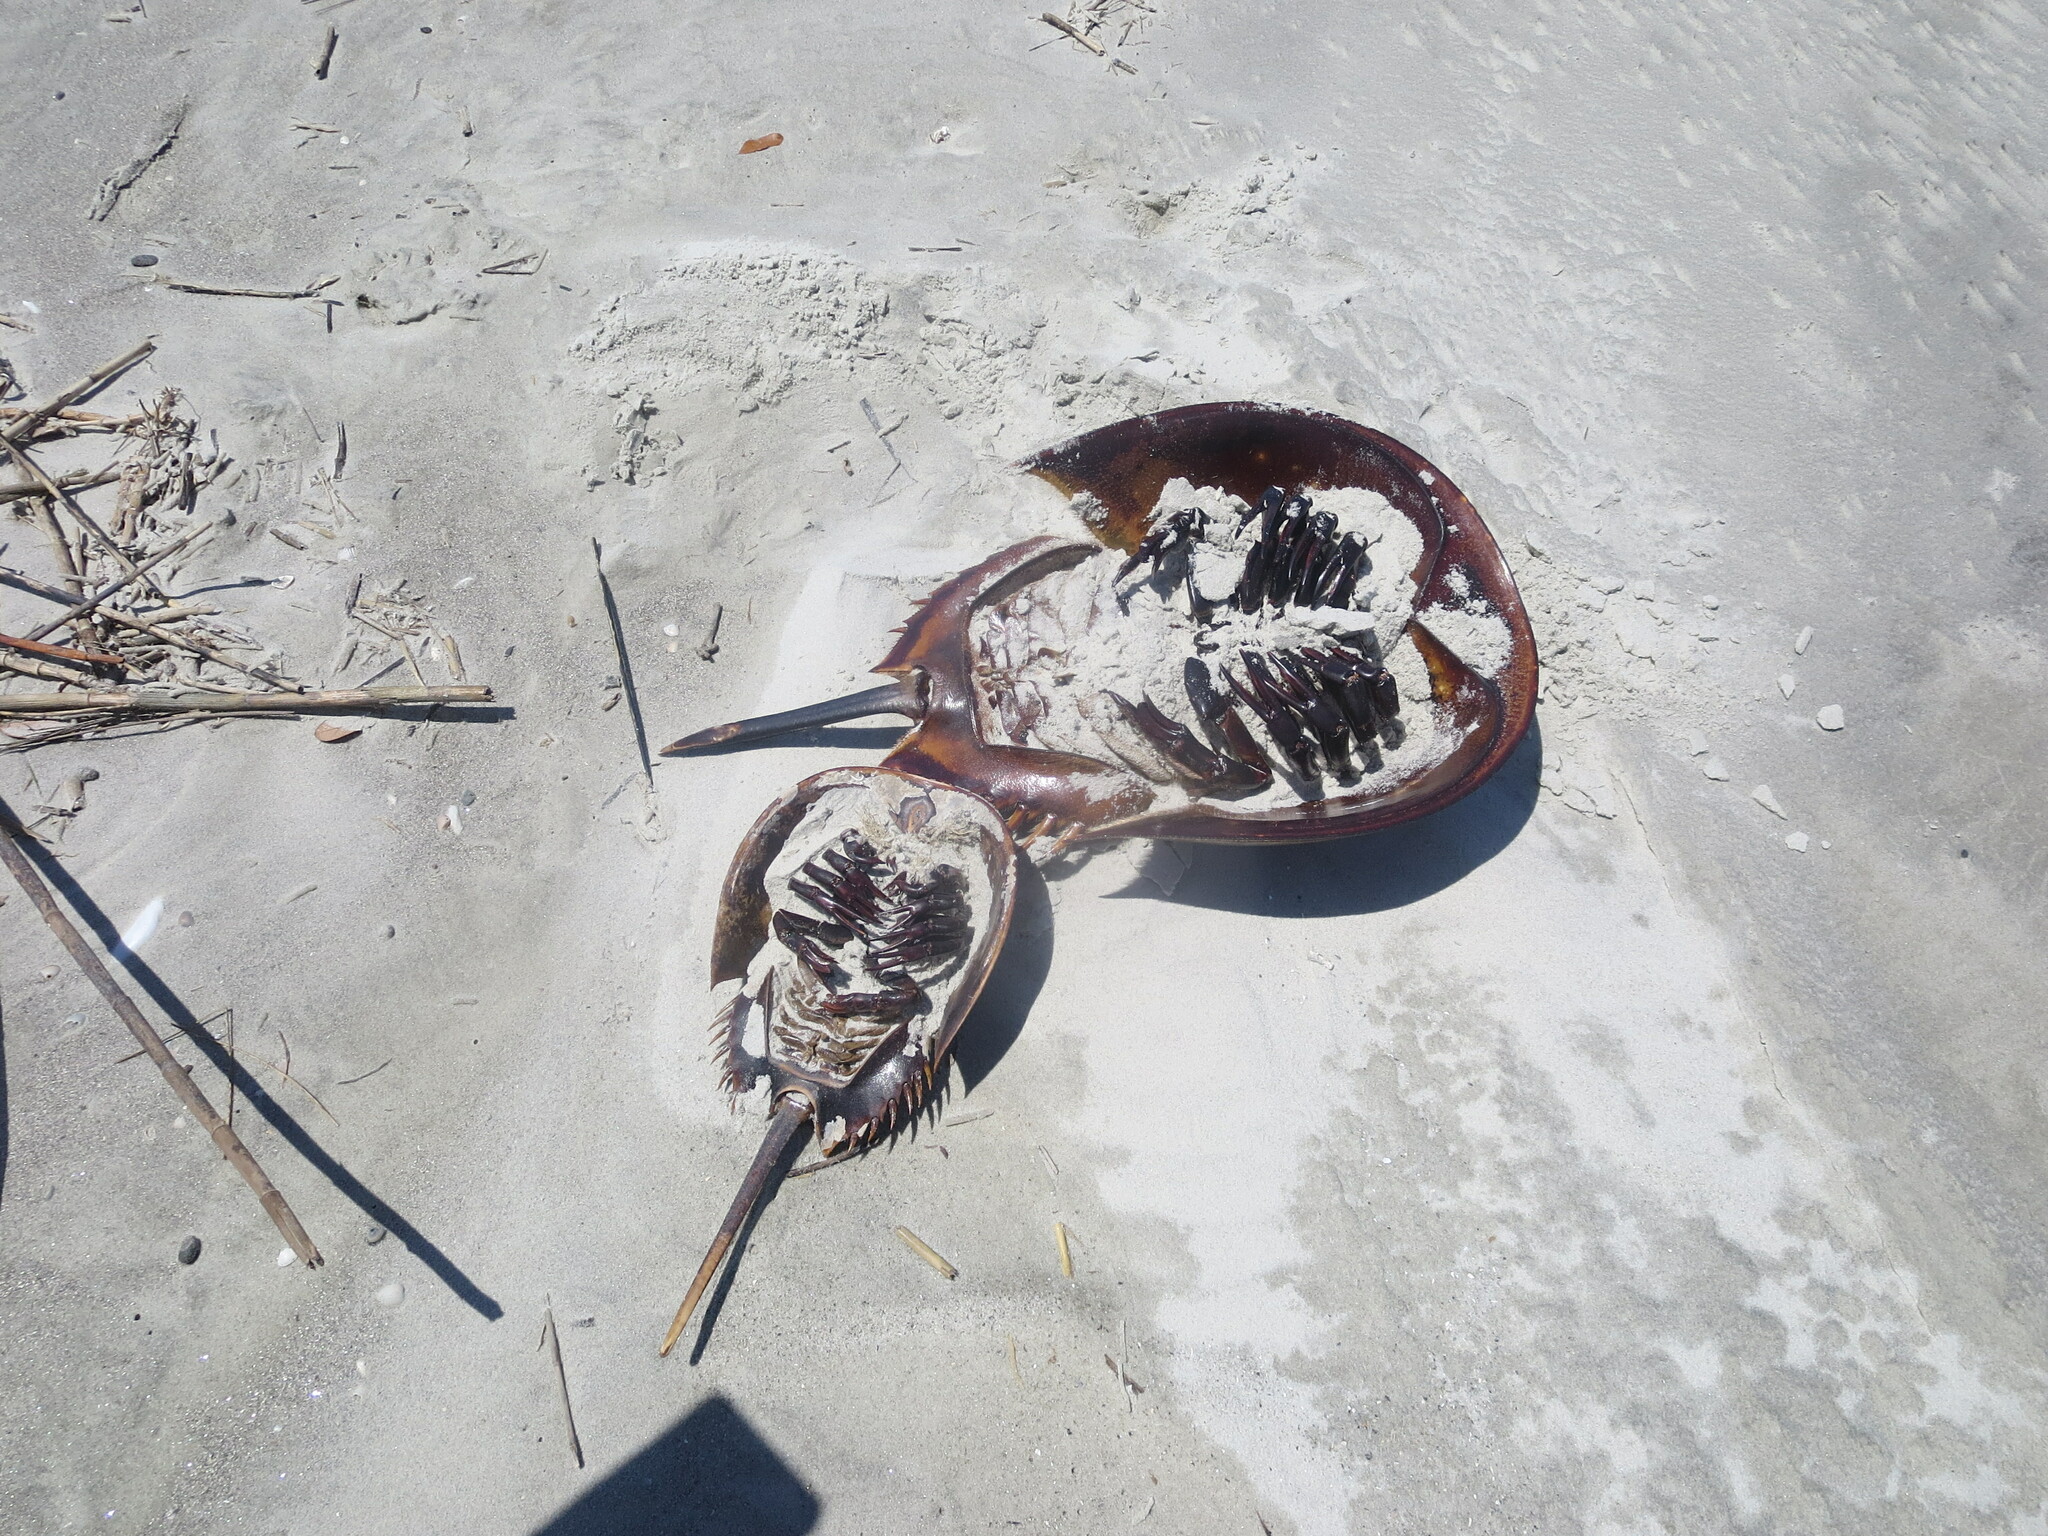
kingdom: Animalia
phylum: Arthropoda
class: Merostomata
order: Xiphosurida
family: Limulidae
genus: Limulus
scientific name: Limulus polyphemus
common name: Horseshoe crab
